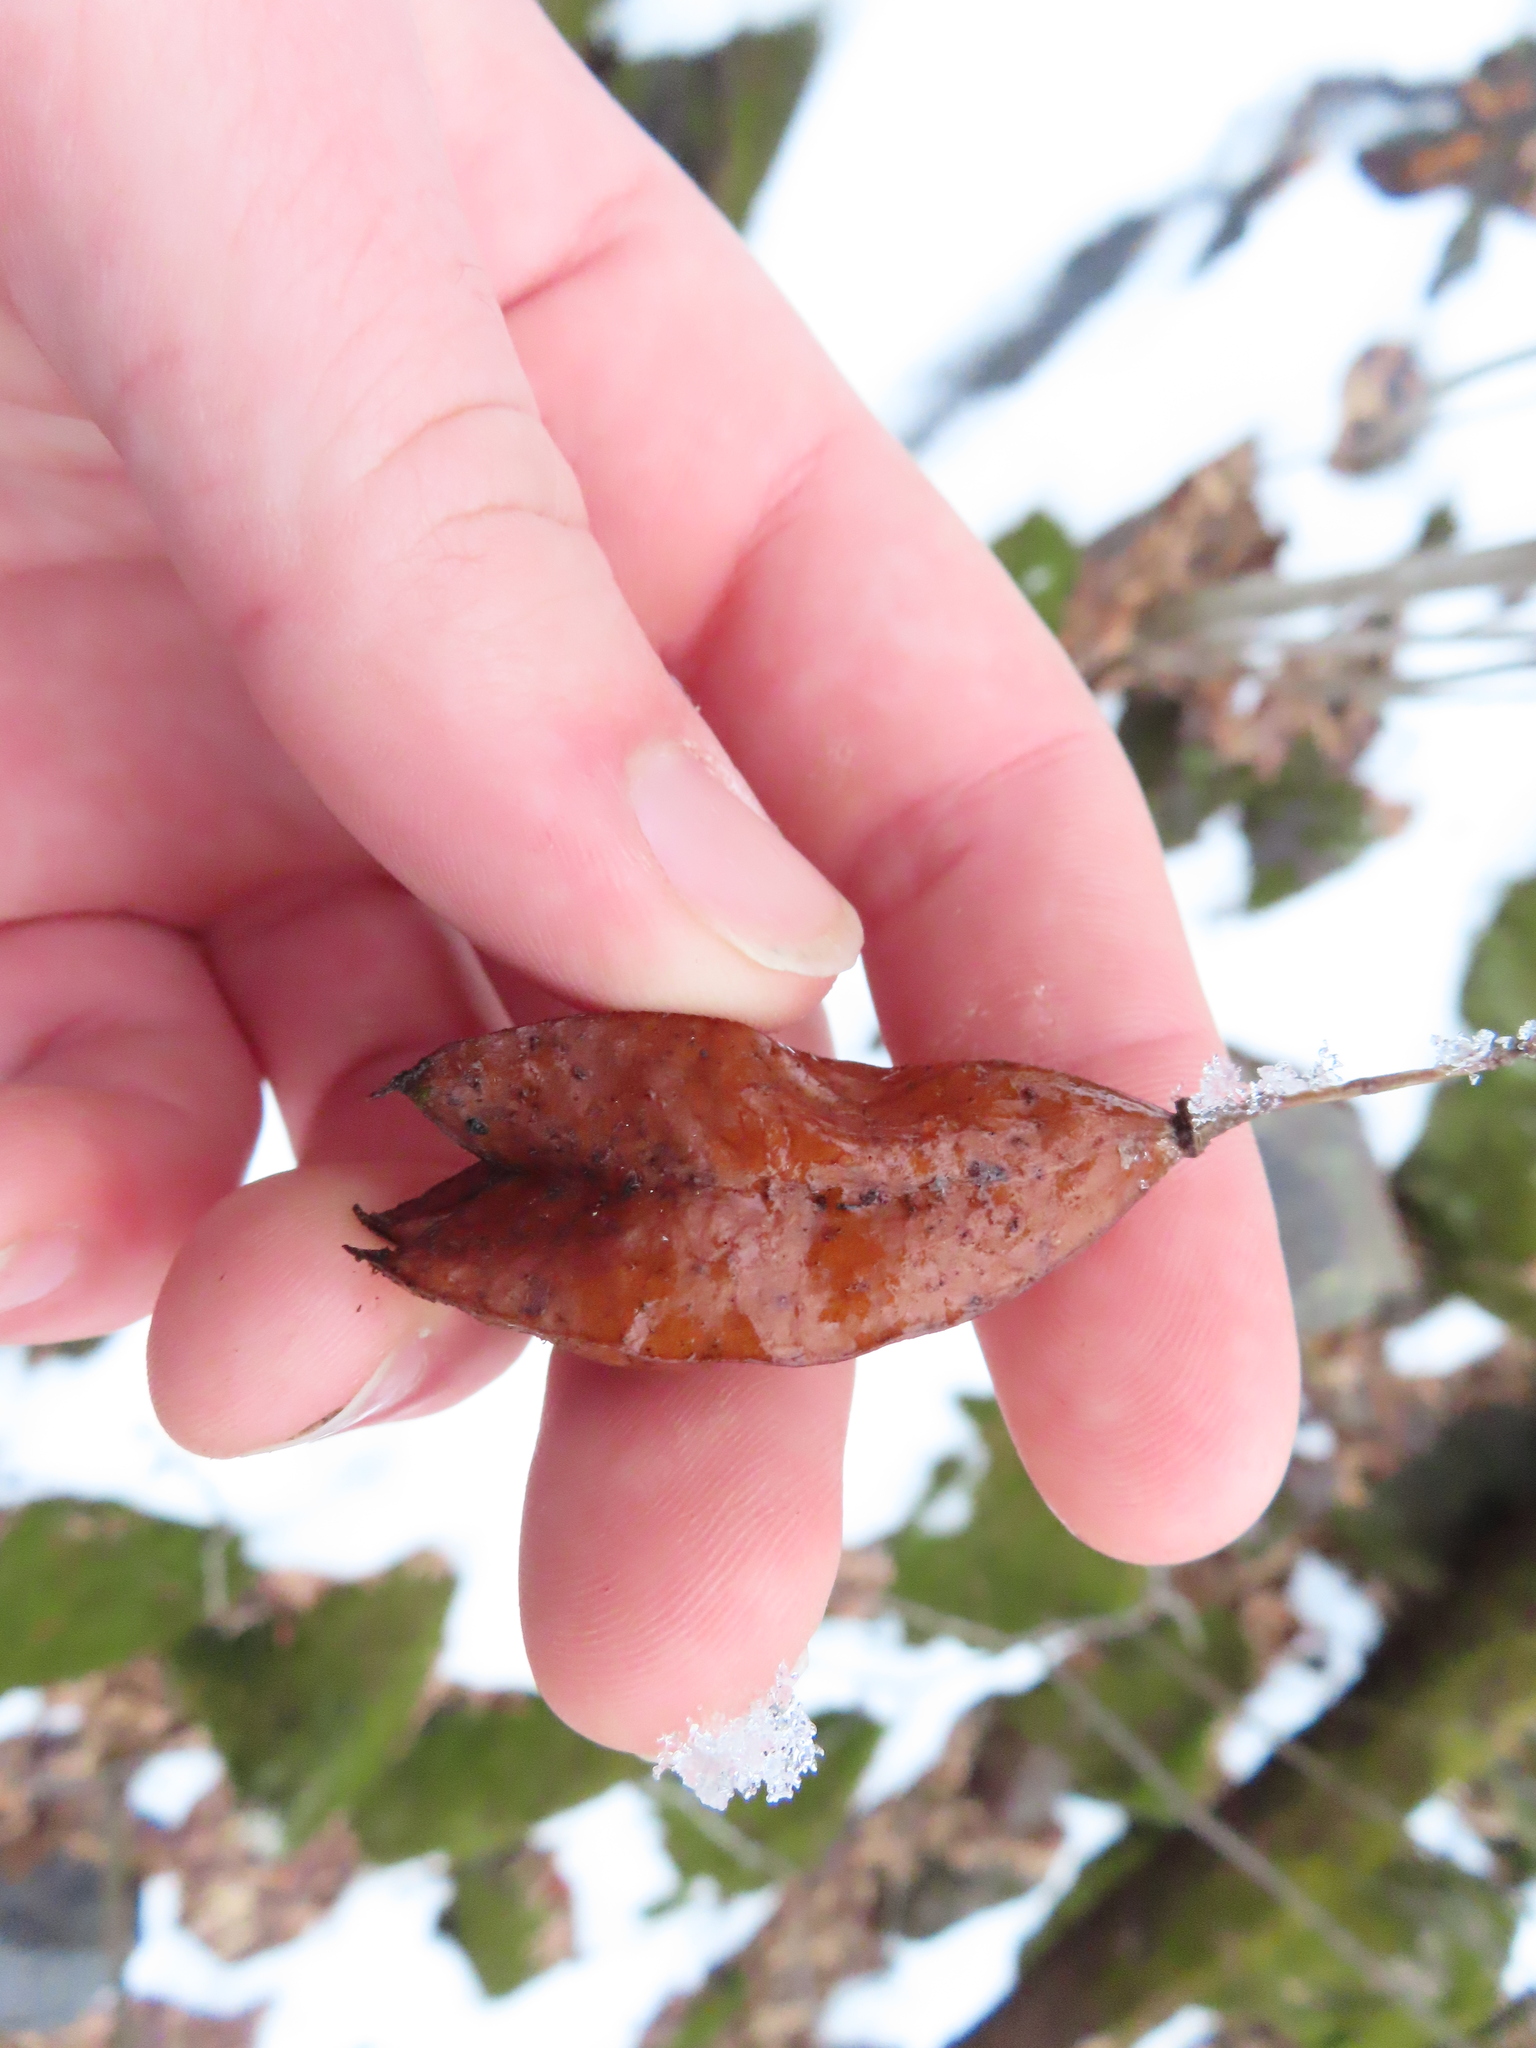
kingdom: Plantae
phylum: Tracheophyta
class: Magnoliopsida
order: Crossosomatales
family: Staphyleaceae
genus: Staphylea
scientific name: Staphylea trifolia
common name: American bladdernut
